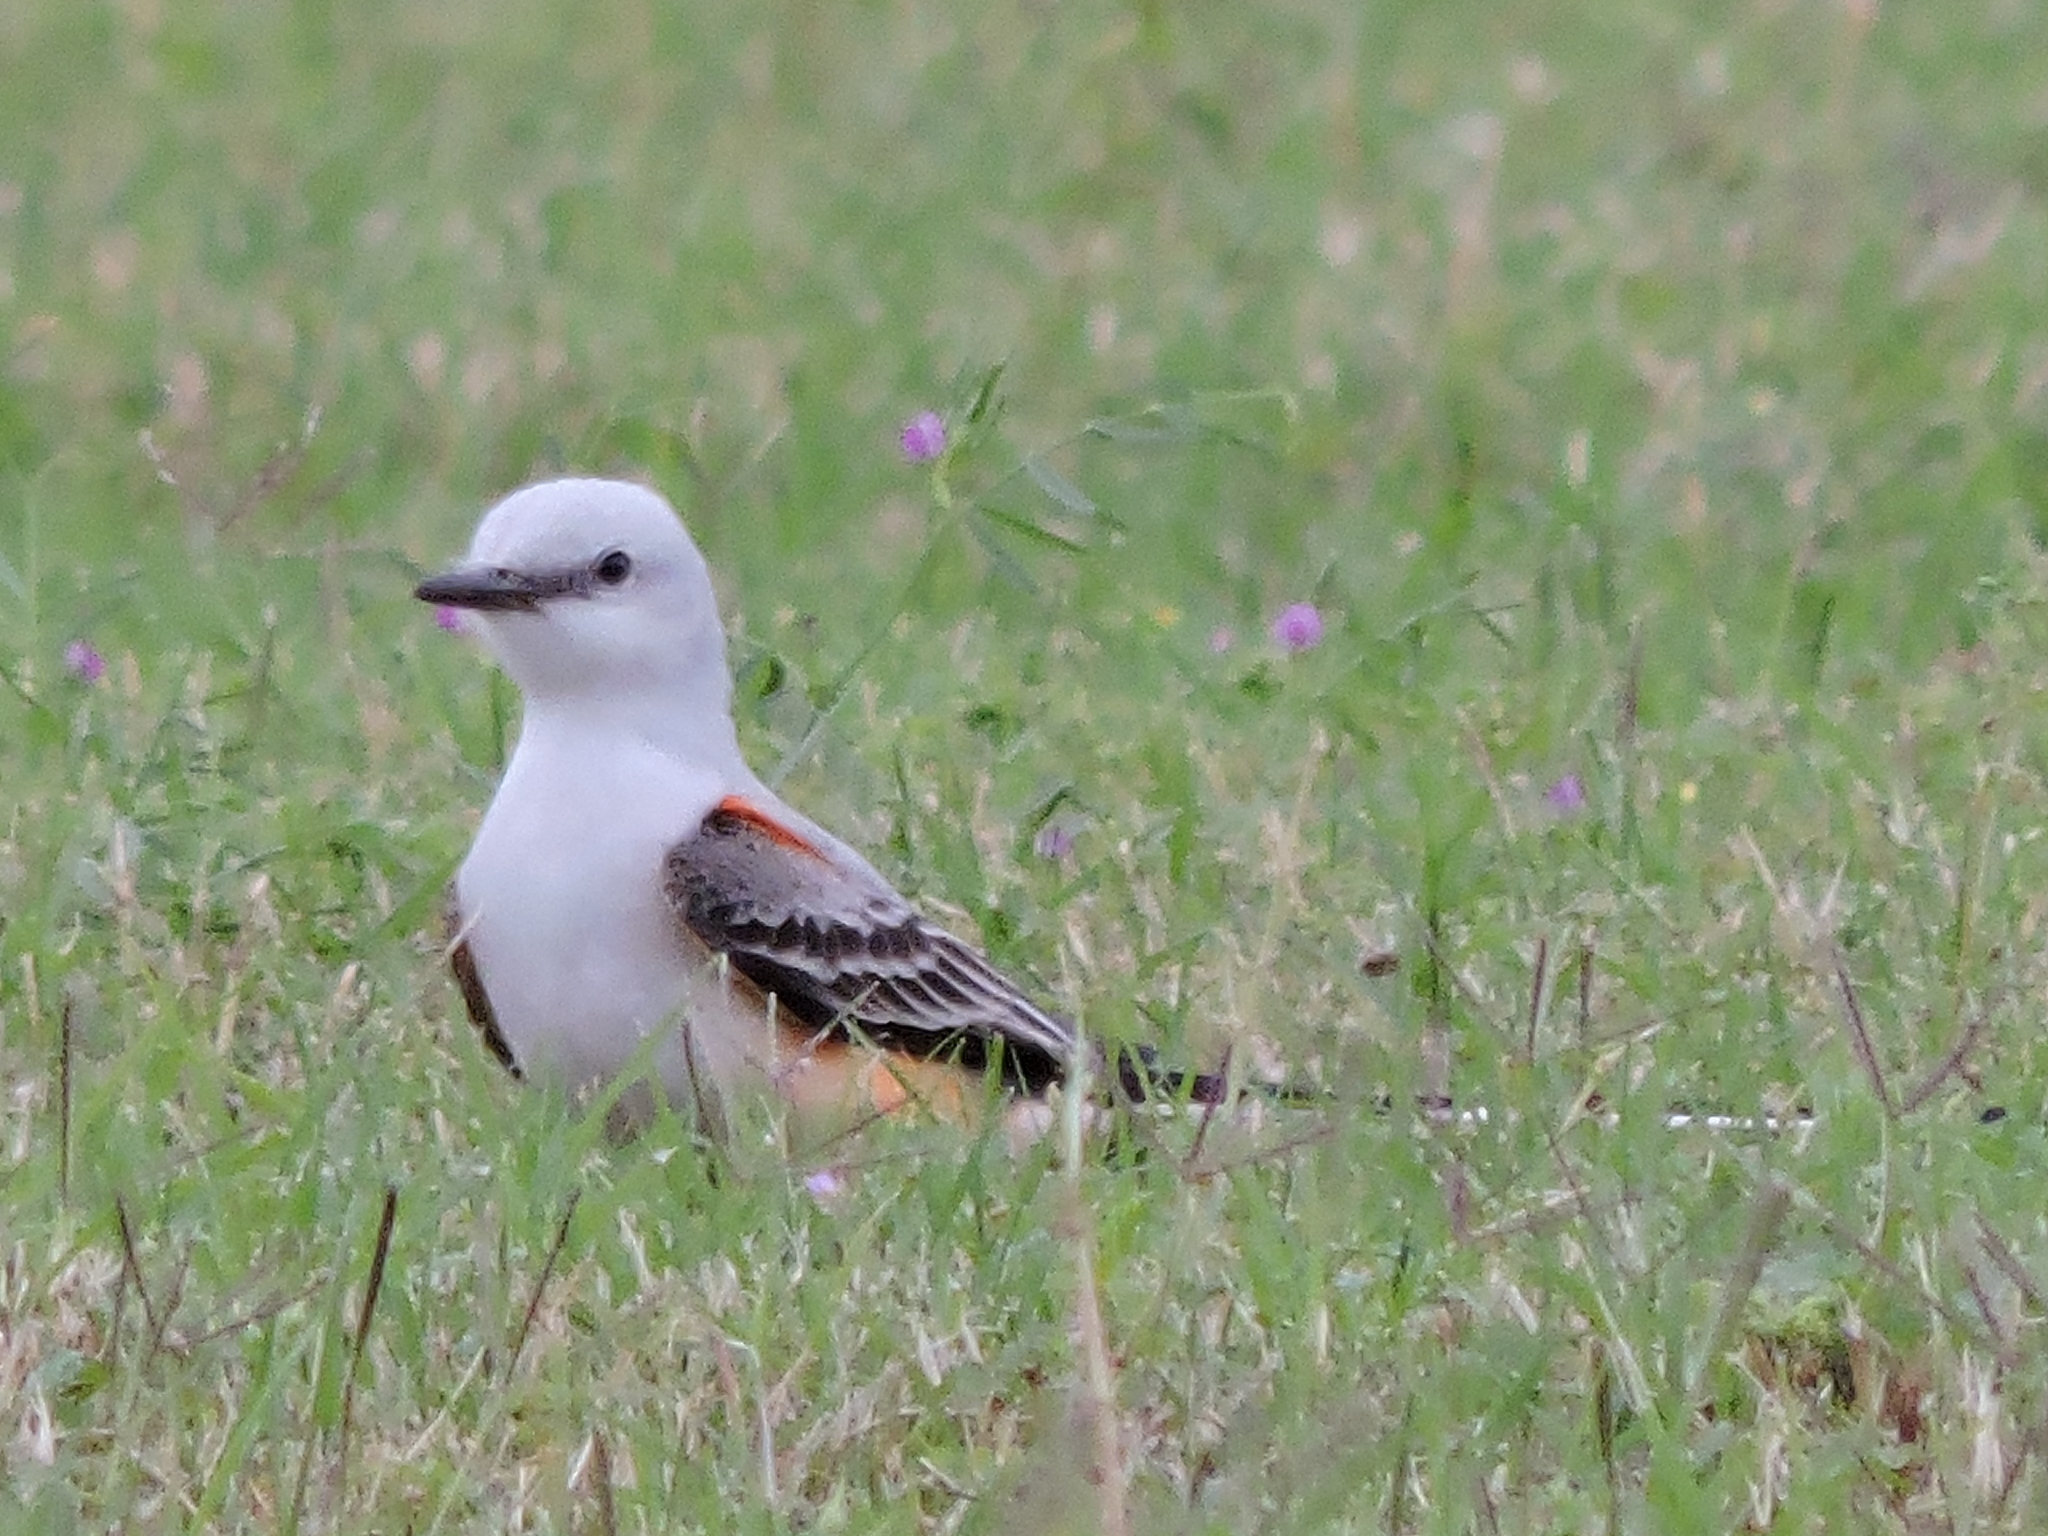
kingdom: Animalia
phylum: Chordata
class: Aves
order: Passeriformes
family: Tyrannidae
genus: Tyrannus
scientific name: Tyrannus forficatus
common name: Scissor-tailed flycatcher
